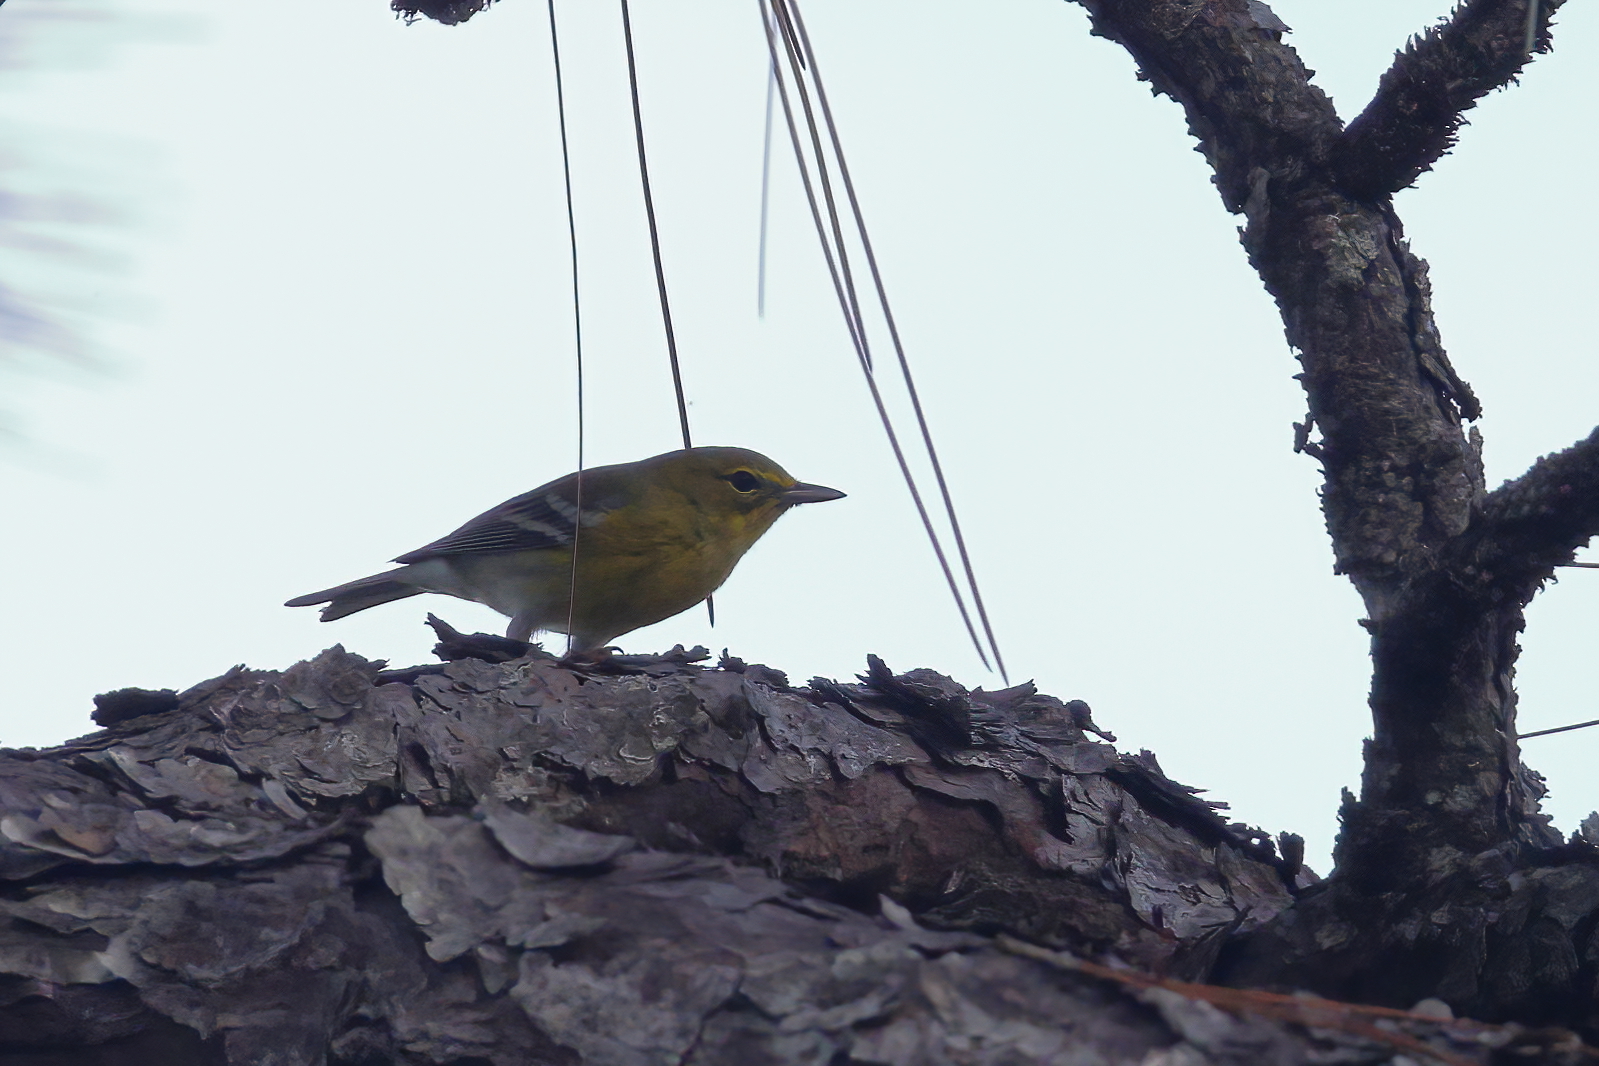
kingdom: Animalia
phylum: Chordata
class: Aves
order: Passeriformes
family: Parulidae
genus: Setophaga
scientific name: Setophaga pinus
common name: Pine warbler
